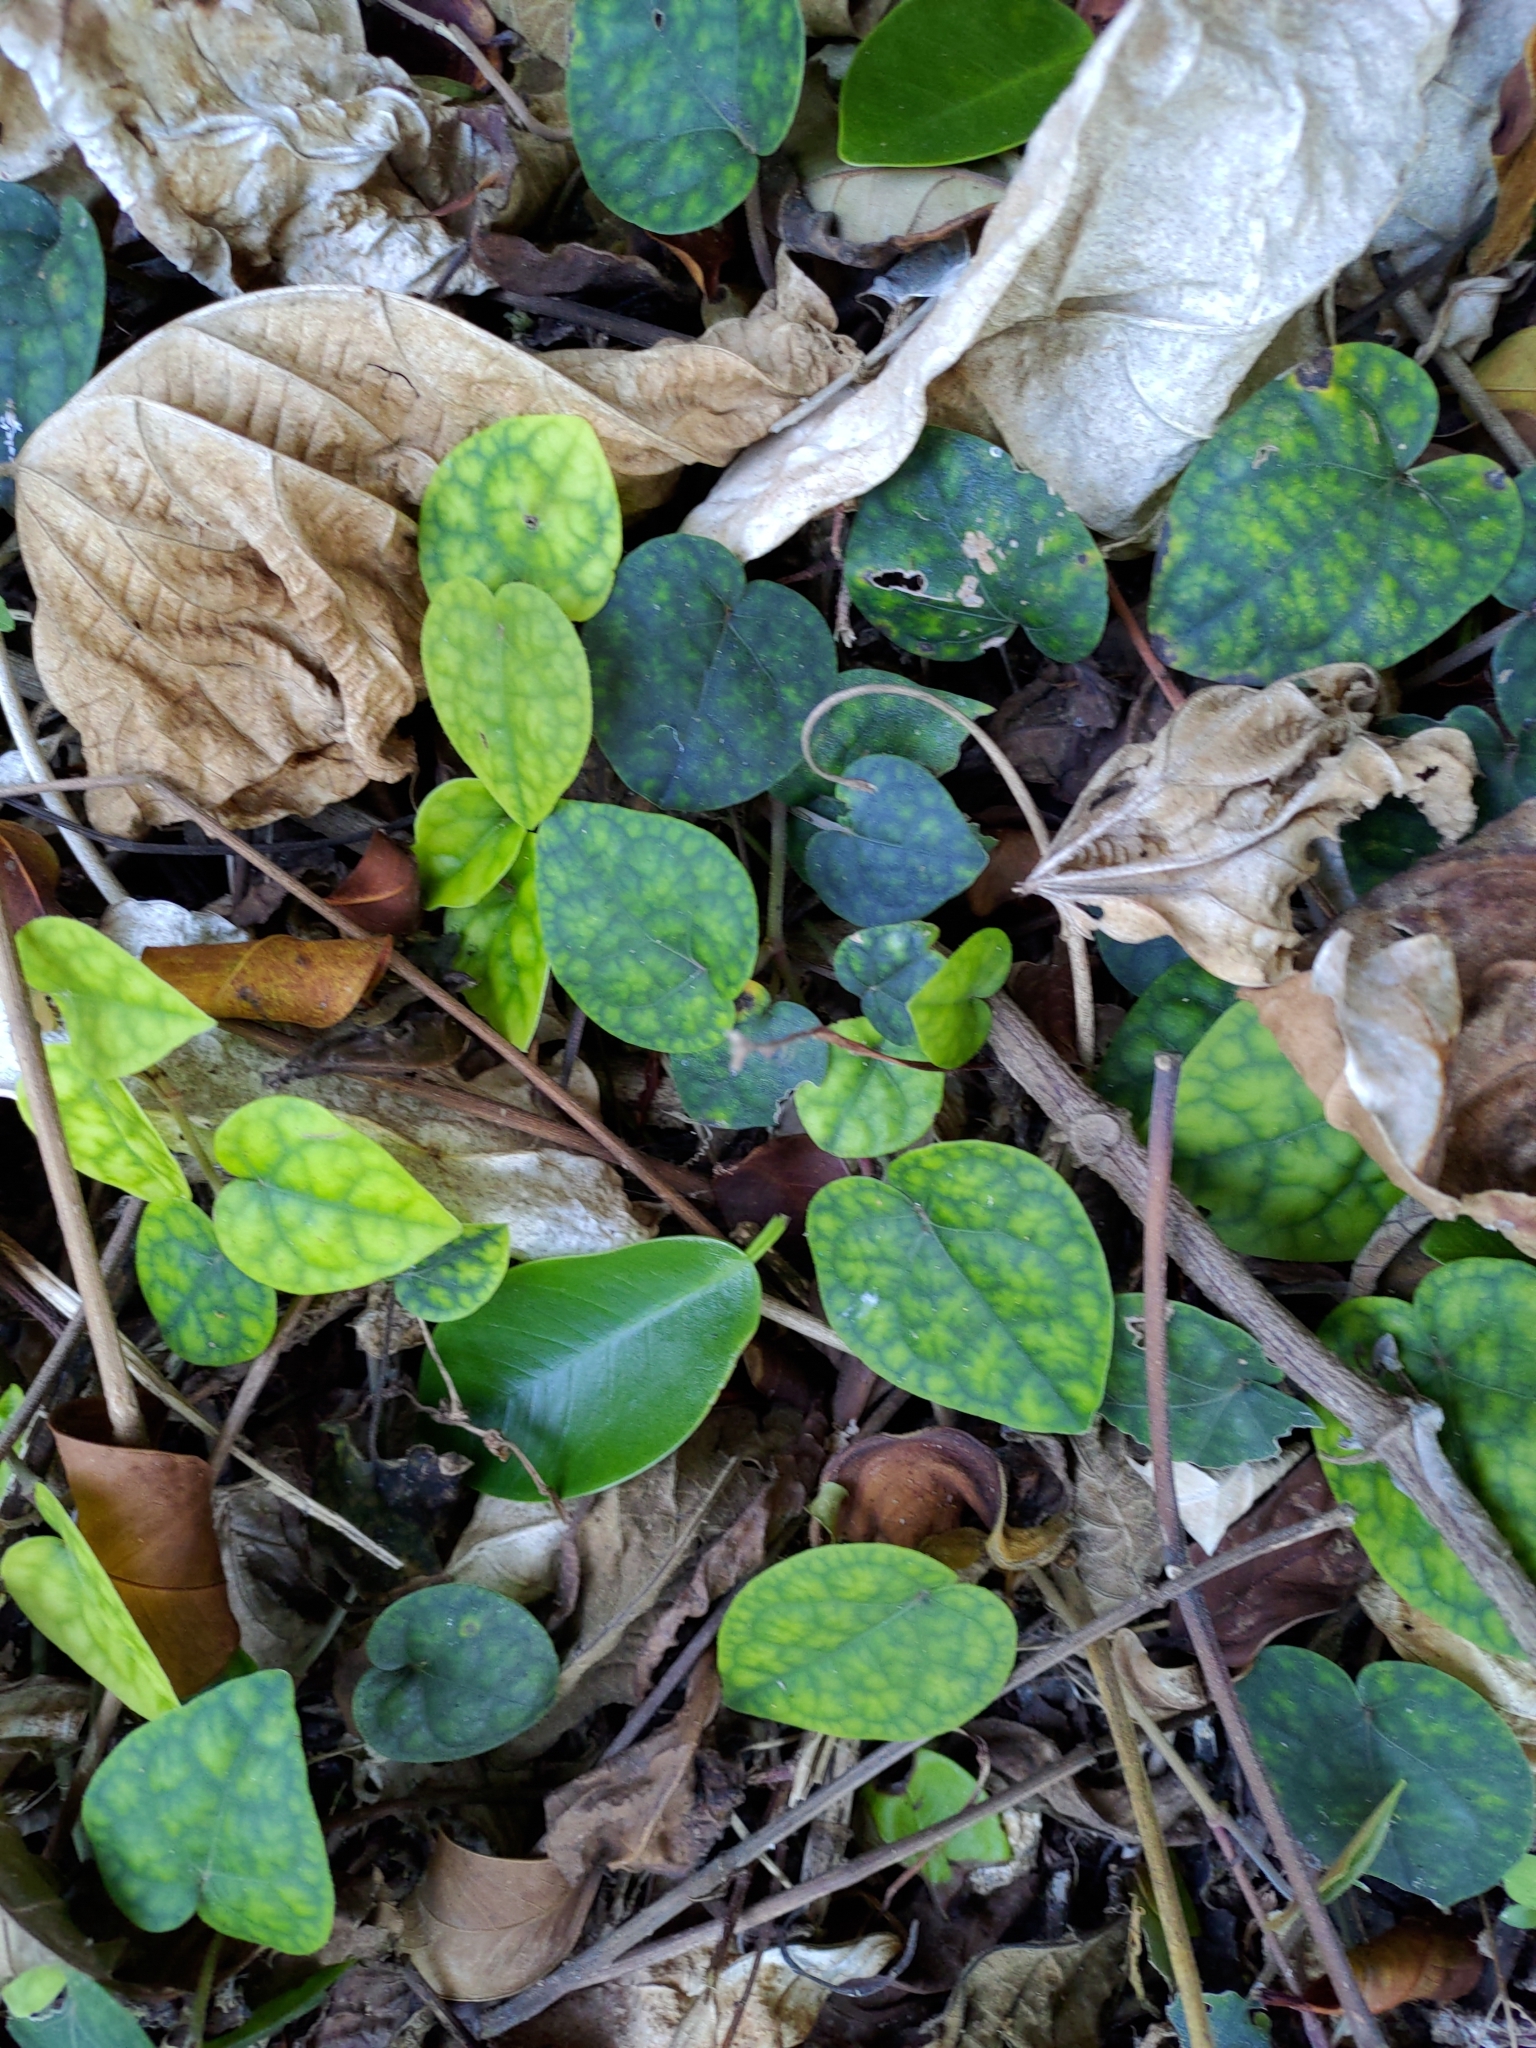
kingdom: Plantae
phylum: Tracheophyta
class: Magnoliopsida
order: Piperales
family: Piperaceae
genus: Piper
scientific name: Piper kadsura
